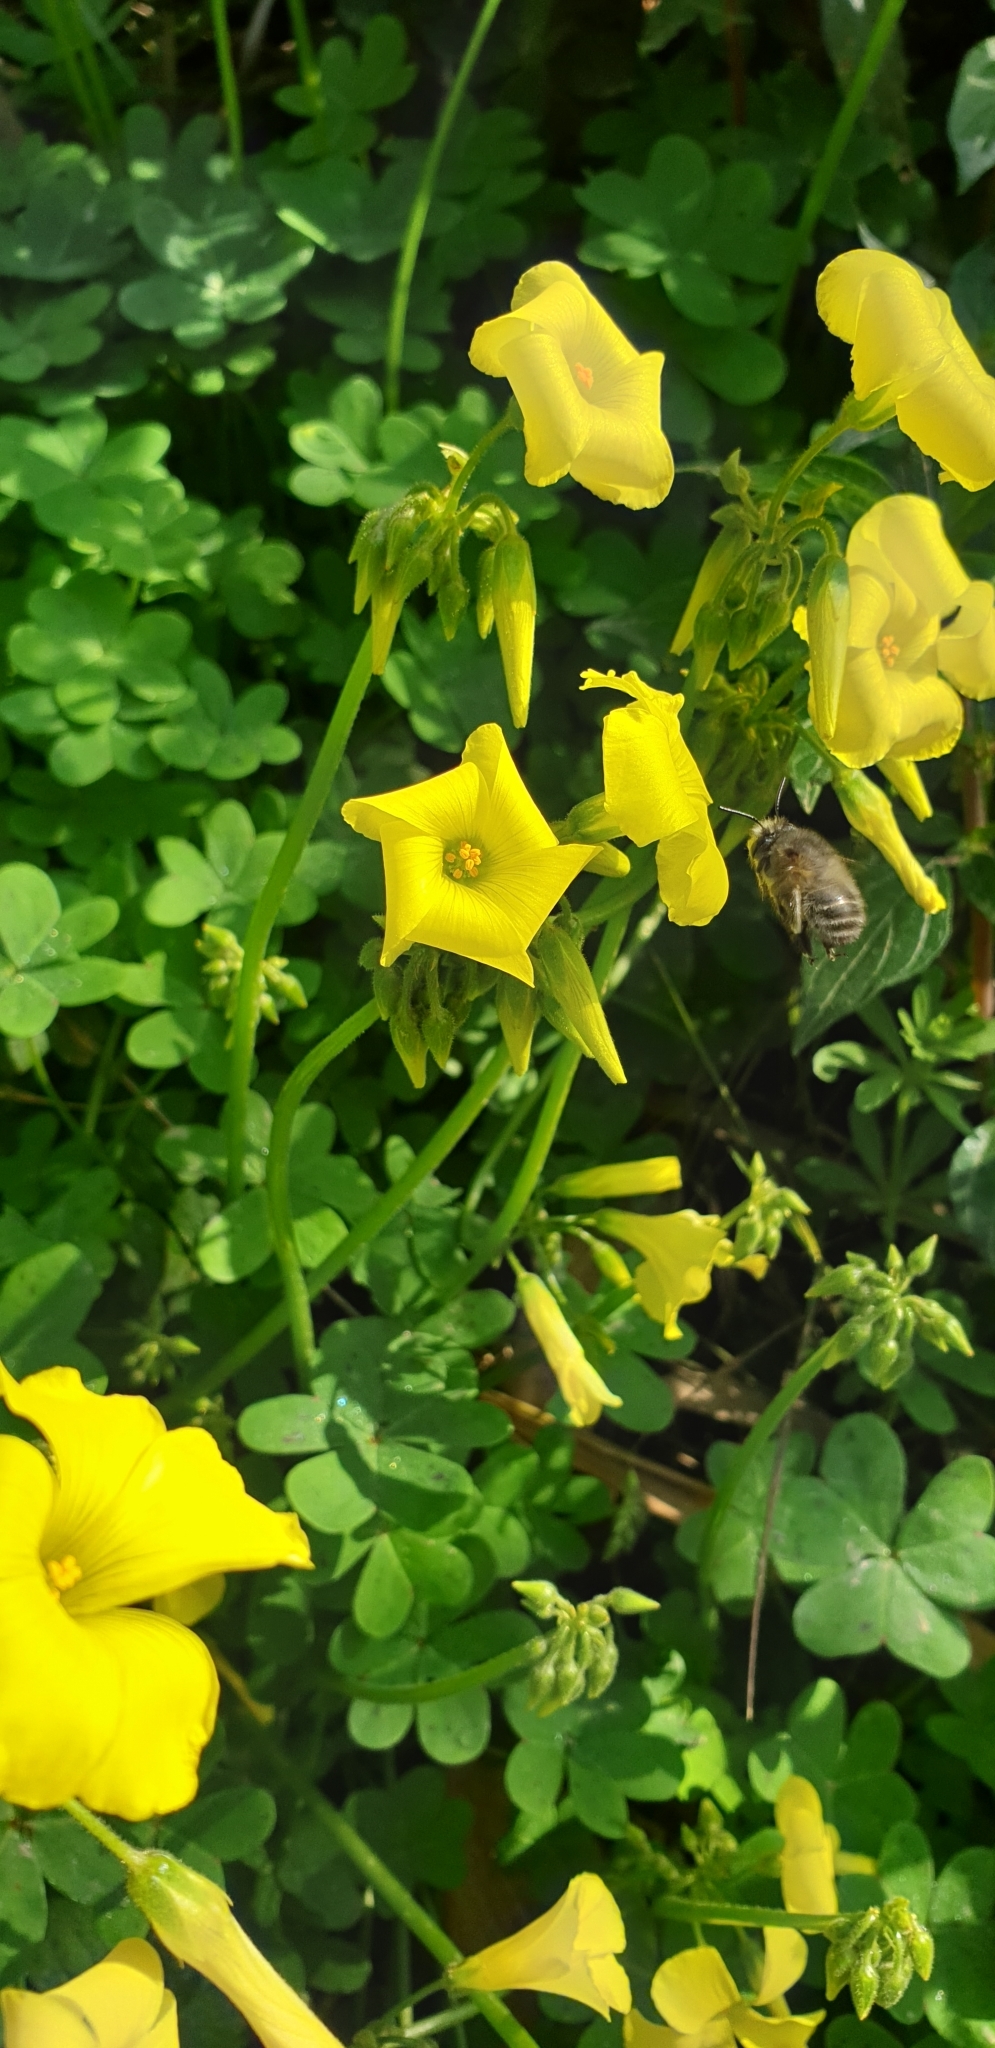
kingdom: Animalia
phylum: Arthropoda
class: Insecta
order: Hymenoptera
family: Apidae
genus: Anthophora
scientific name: Anthophora plumipes
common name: Hairy-footed flower bee
